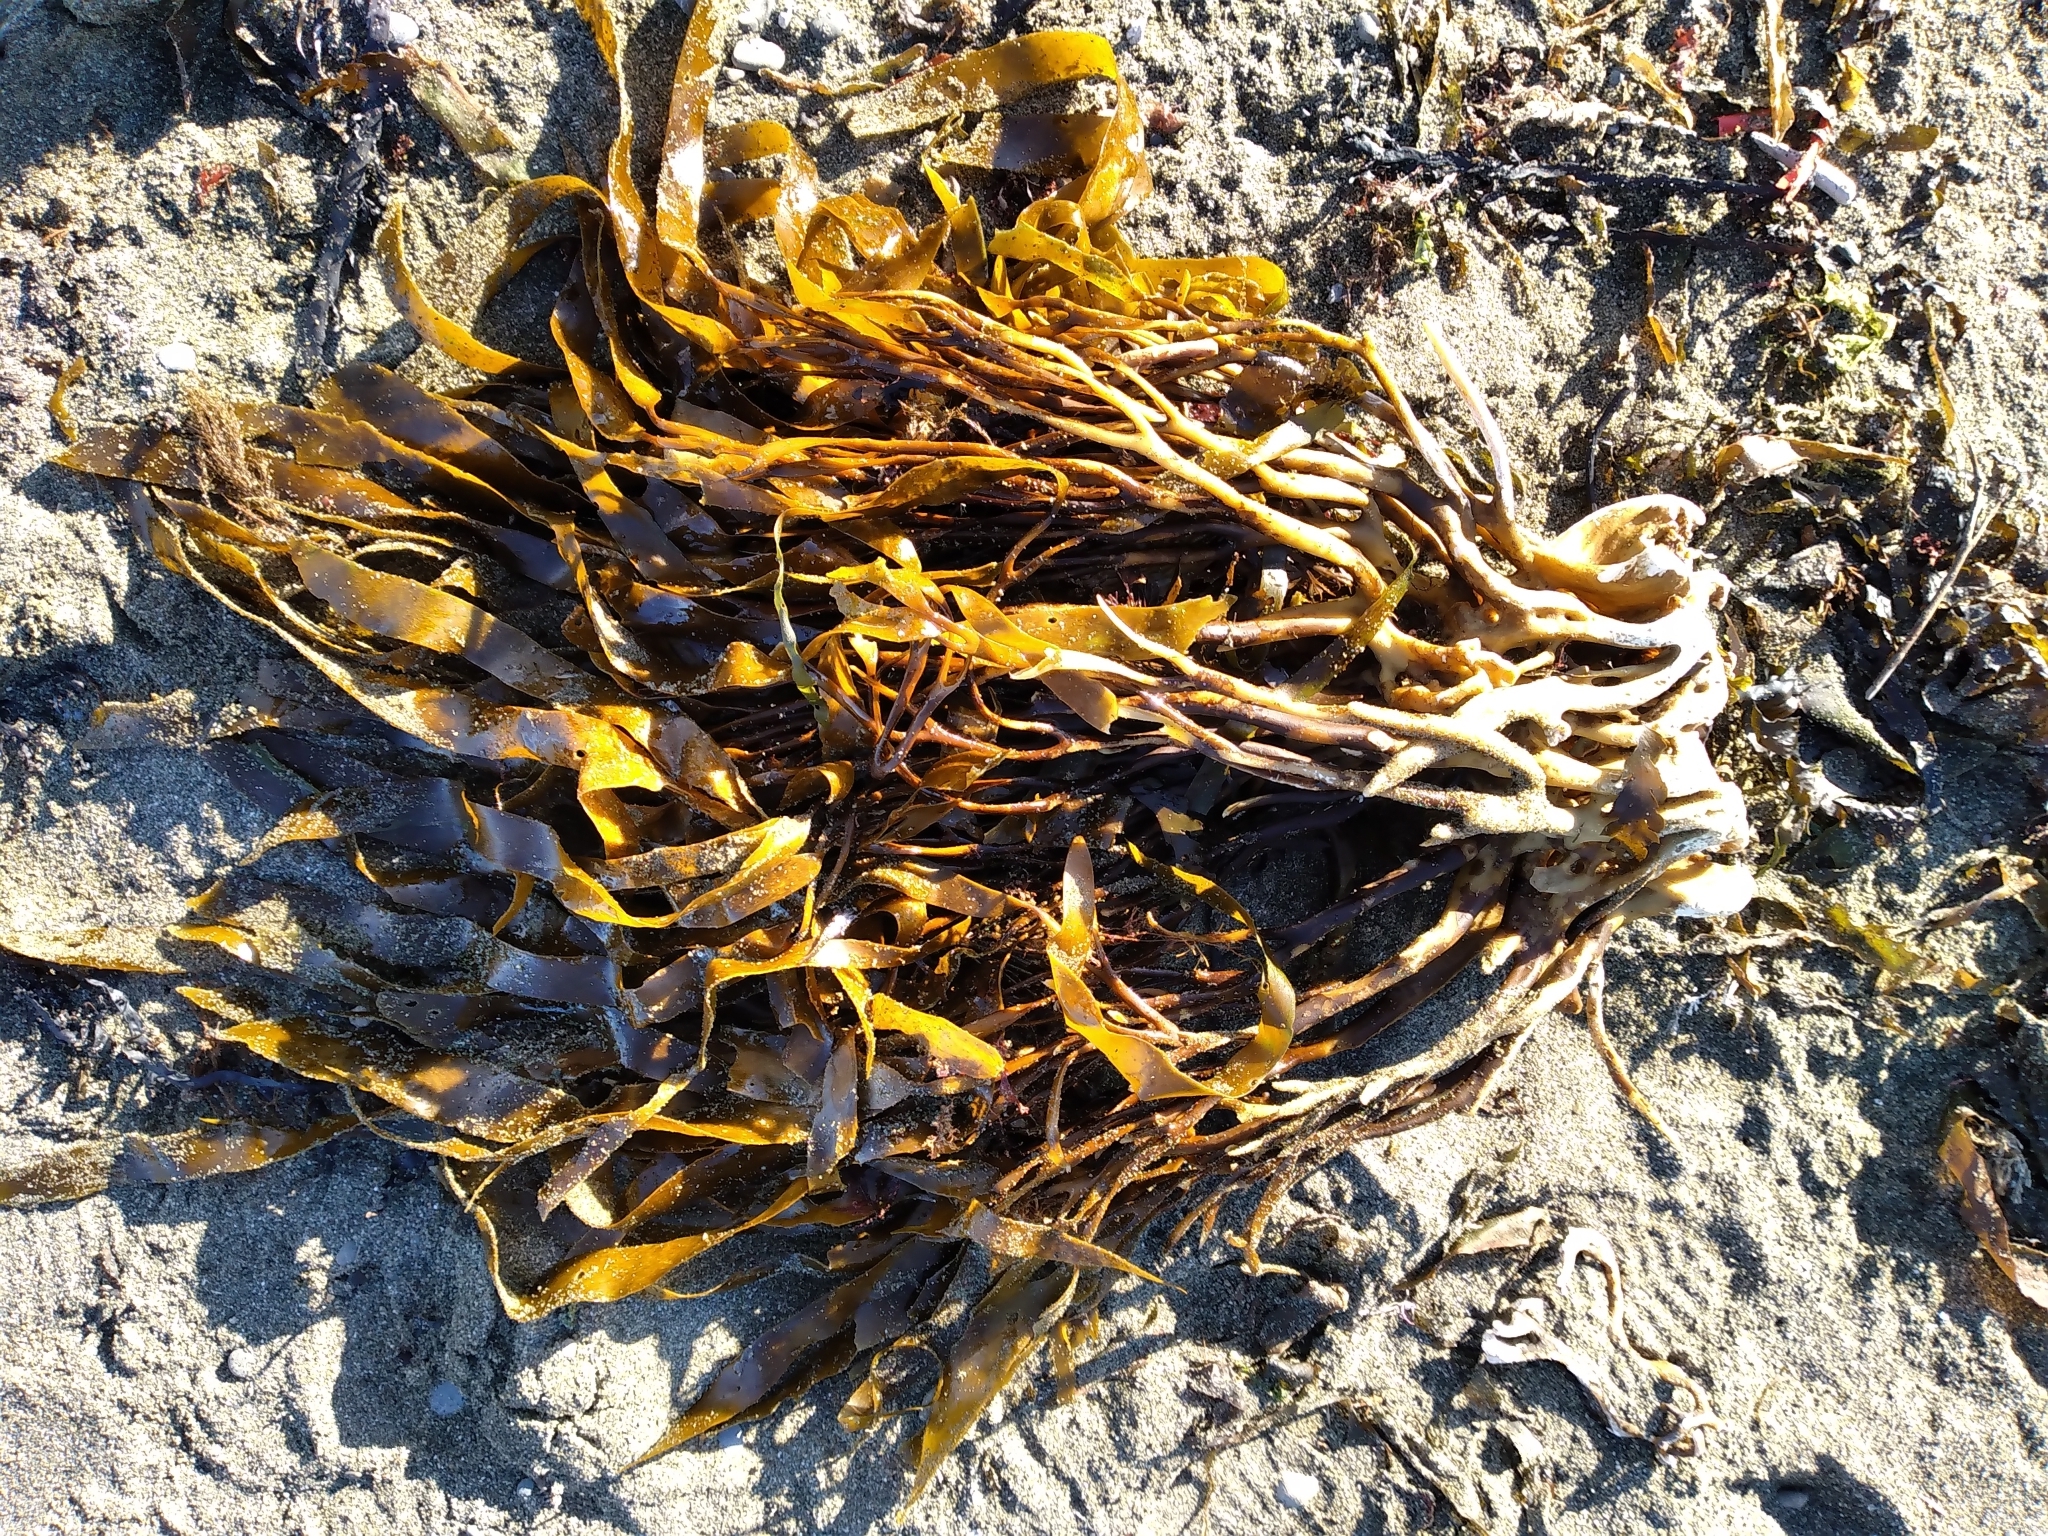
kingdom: Chromista
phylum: Ochrophyta
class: Phaeophyceae
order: Laminariales
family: Lessoniaceae
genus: Lessonia
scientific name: Lessonia variegata
